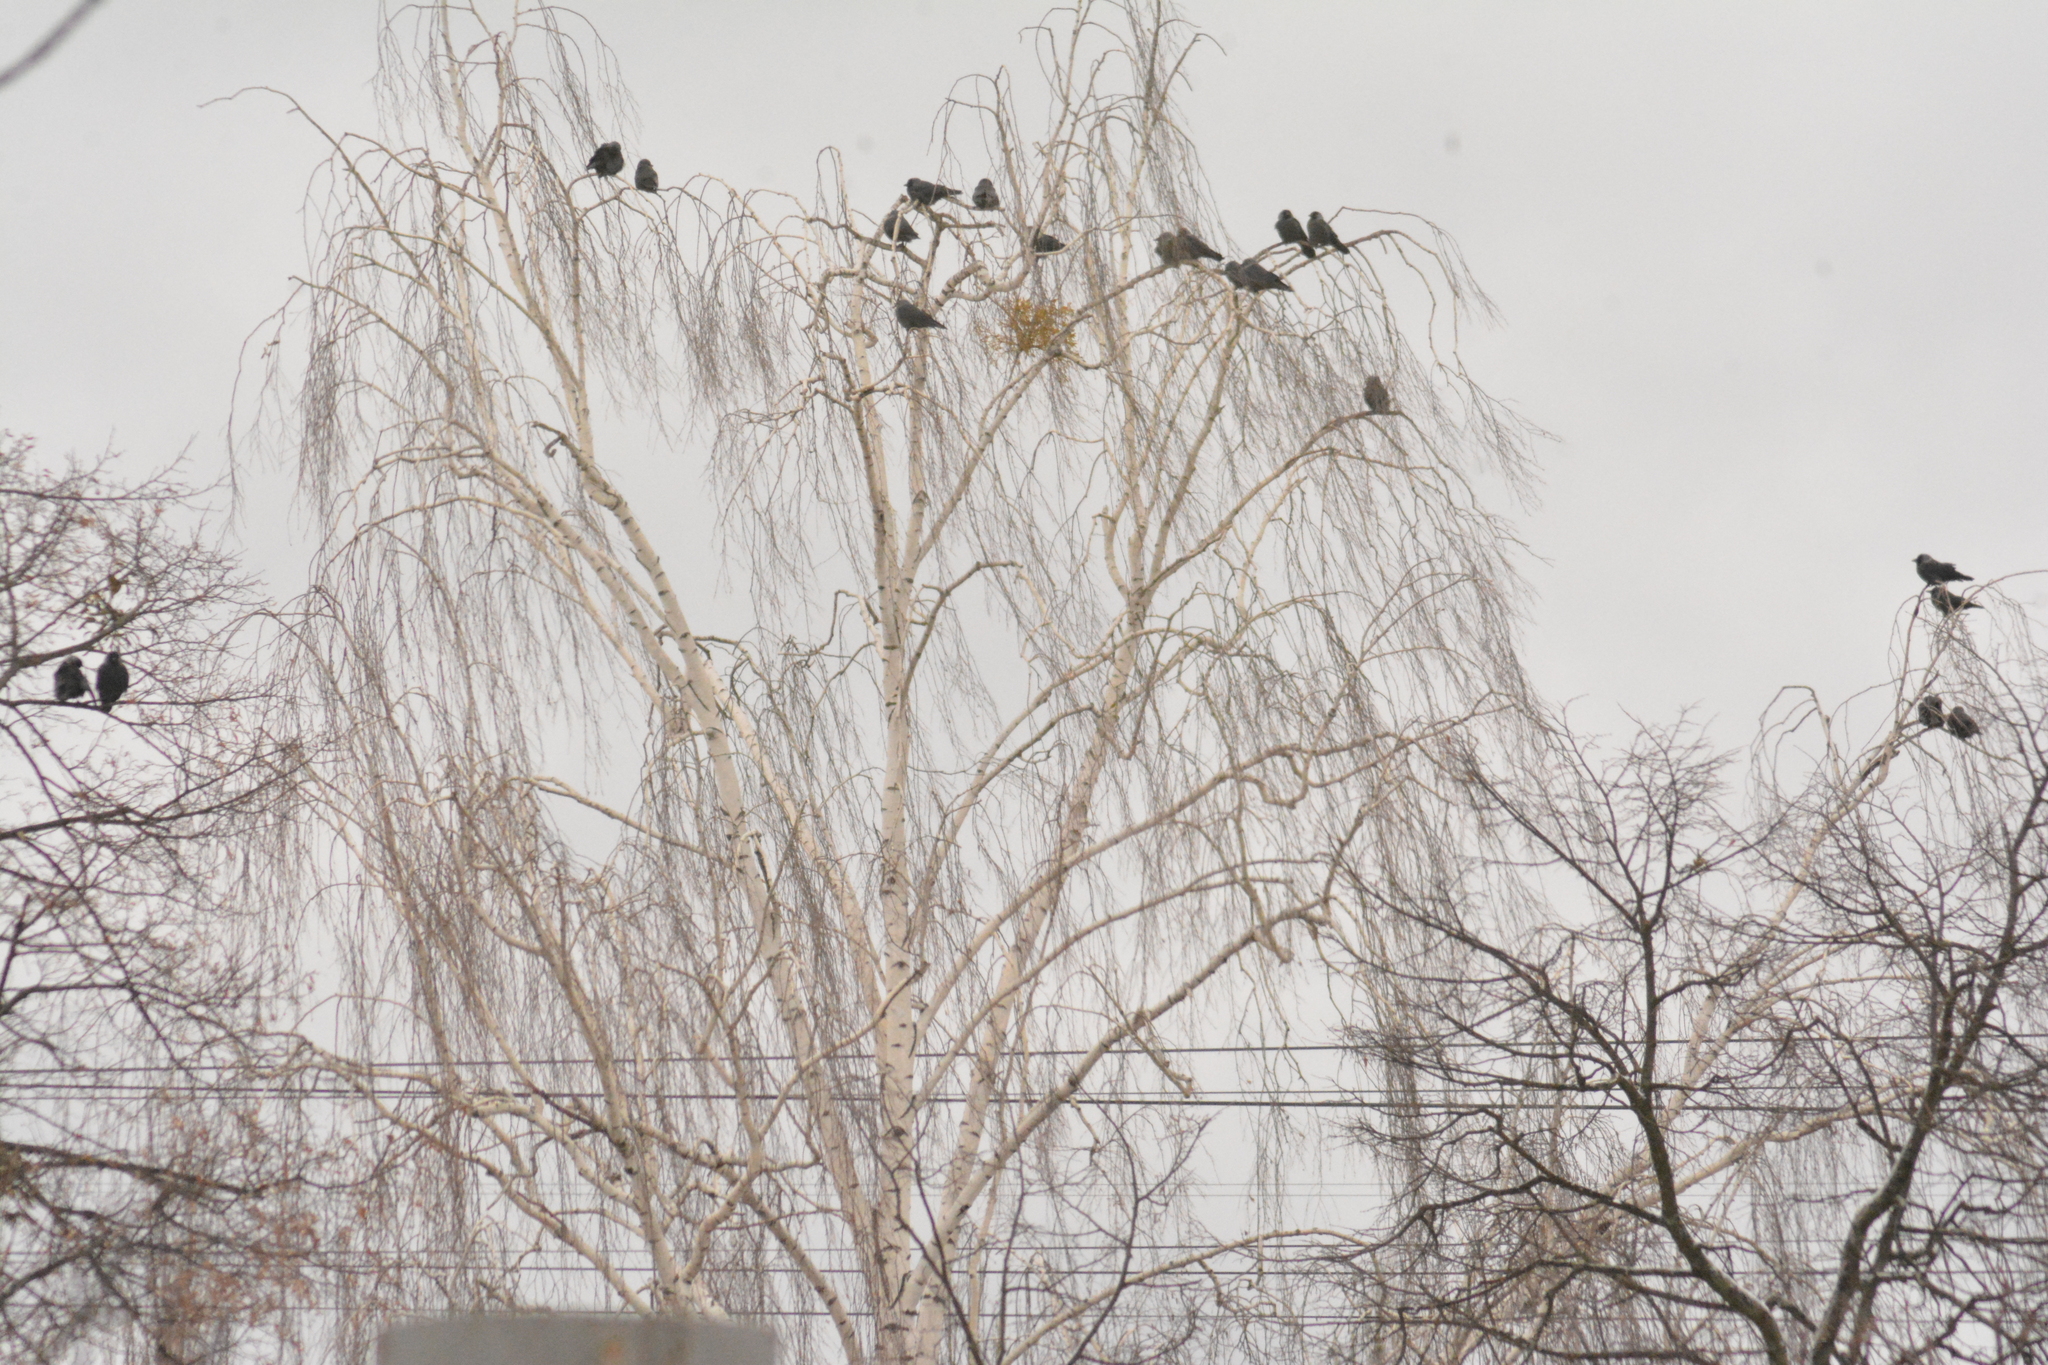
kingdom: Animalia
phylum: Chordata
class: Aves
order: Passeriformes
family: Corvidae
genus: Coloeus
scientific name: Coloeus monedula
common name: Western jackdaw
